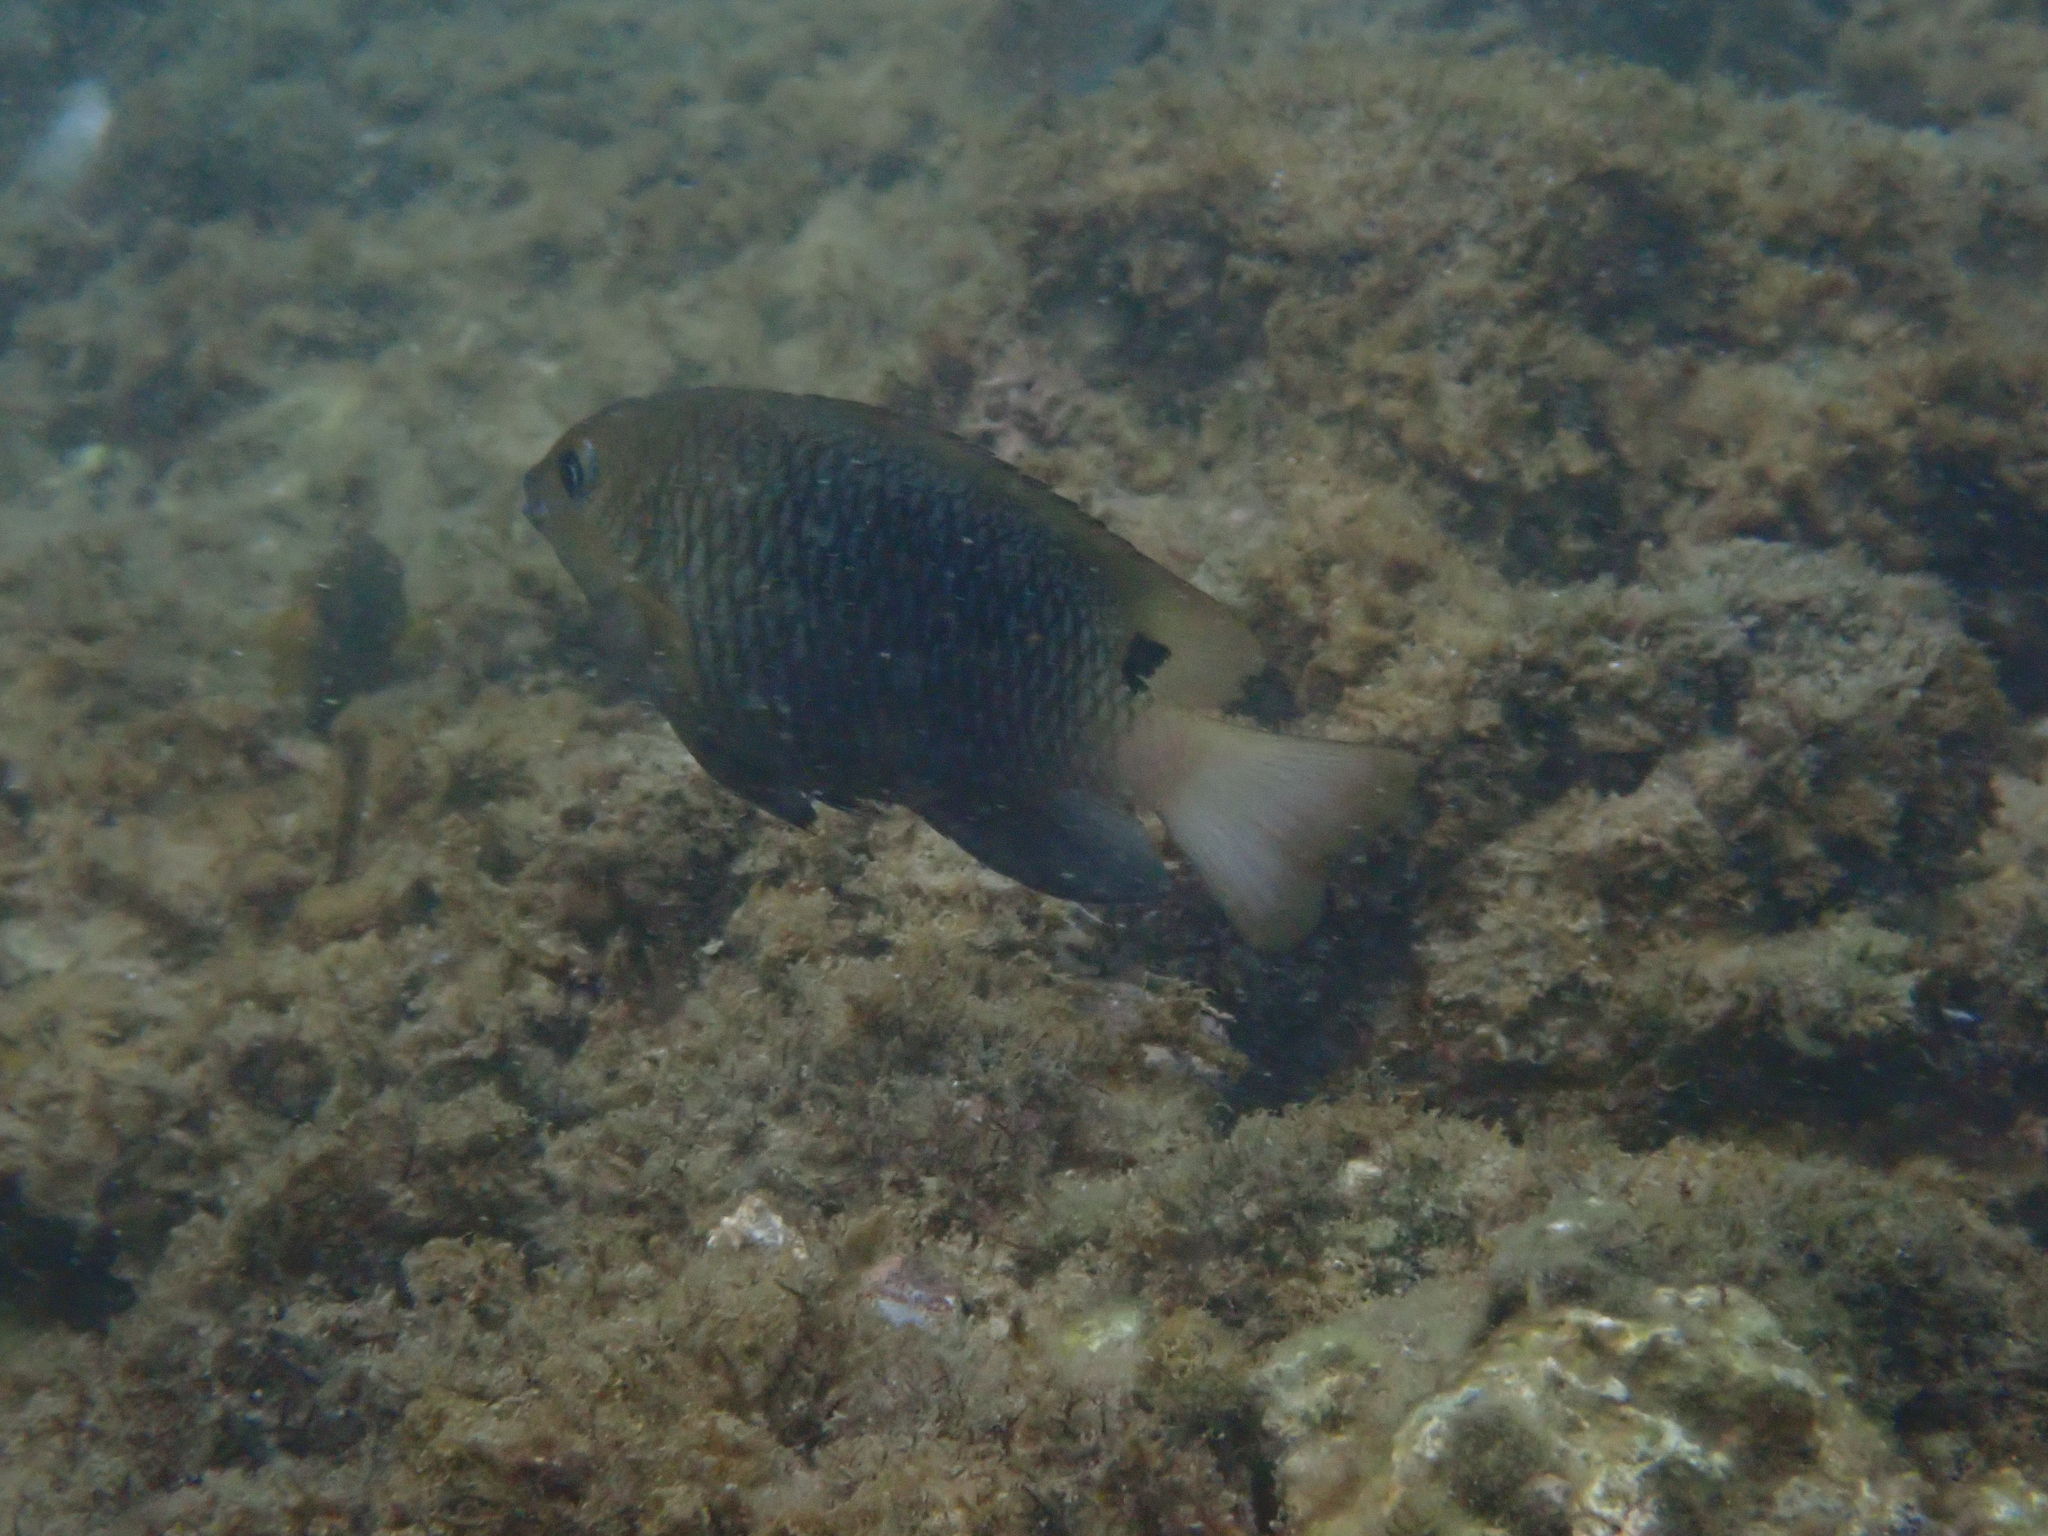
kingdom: Animalia
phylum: Chordata
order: Perciformes
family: Pomacentridae
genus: Chrysiptera
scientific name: Chrysiptera unimaculata
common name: Onespot demoiselle
